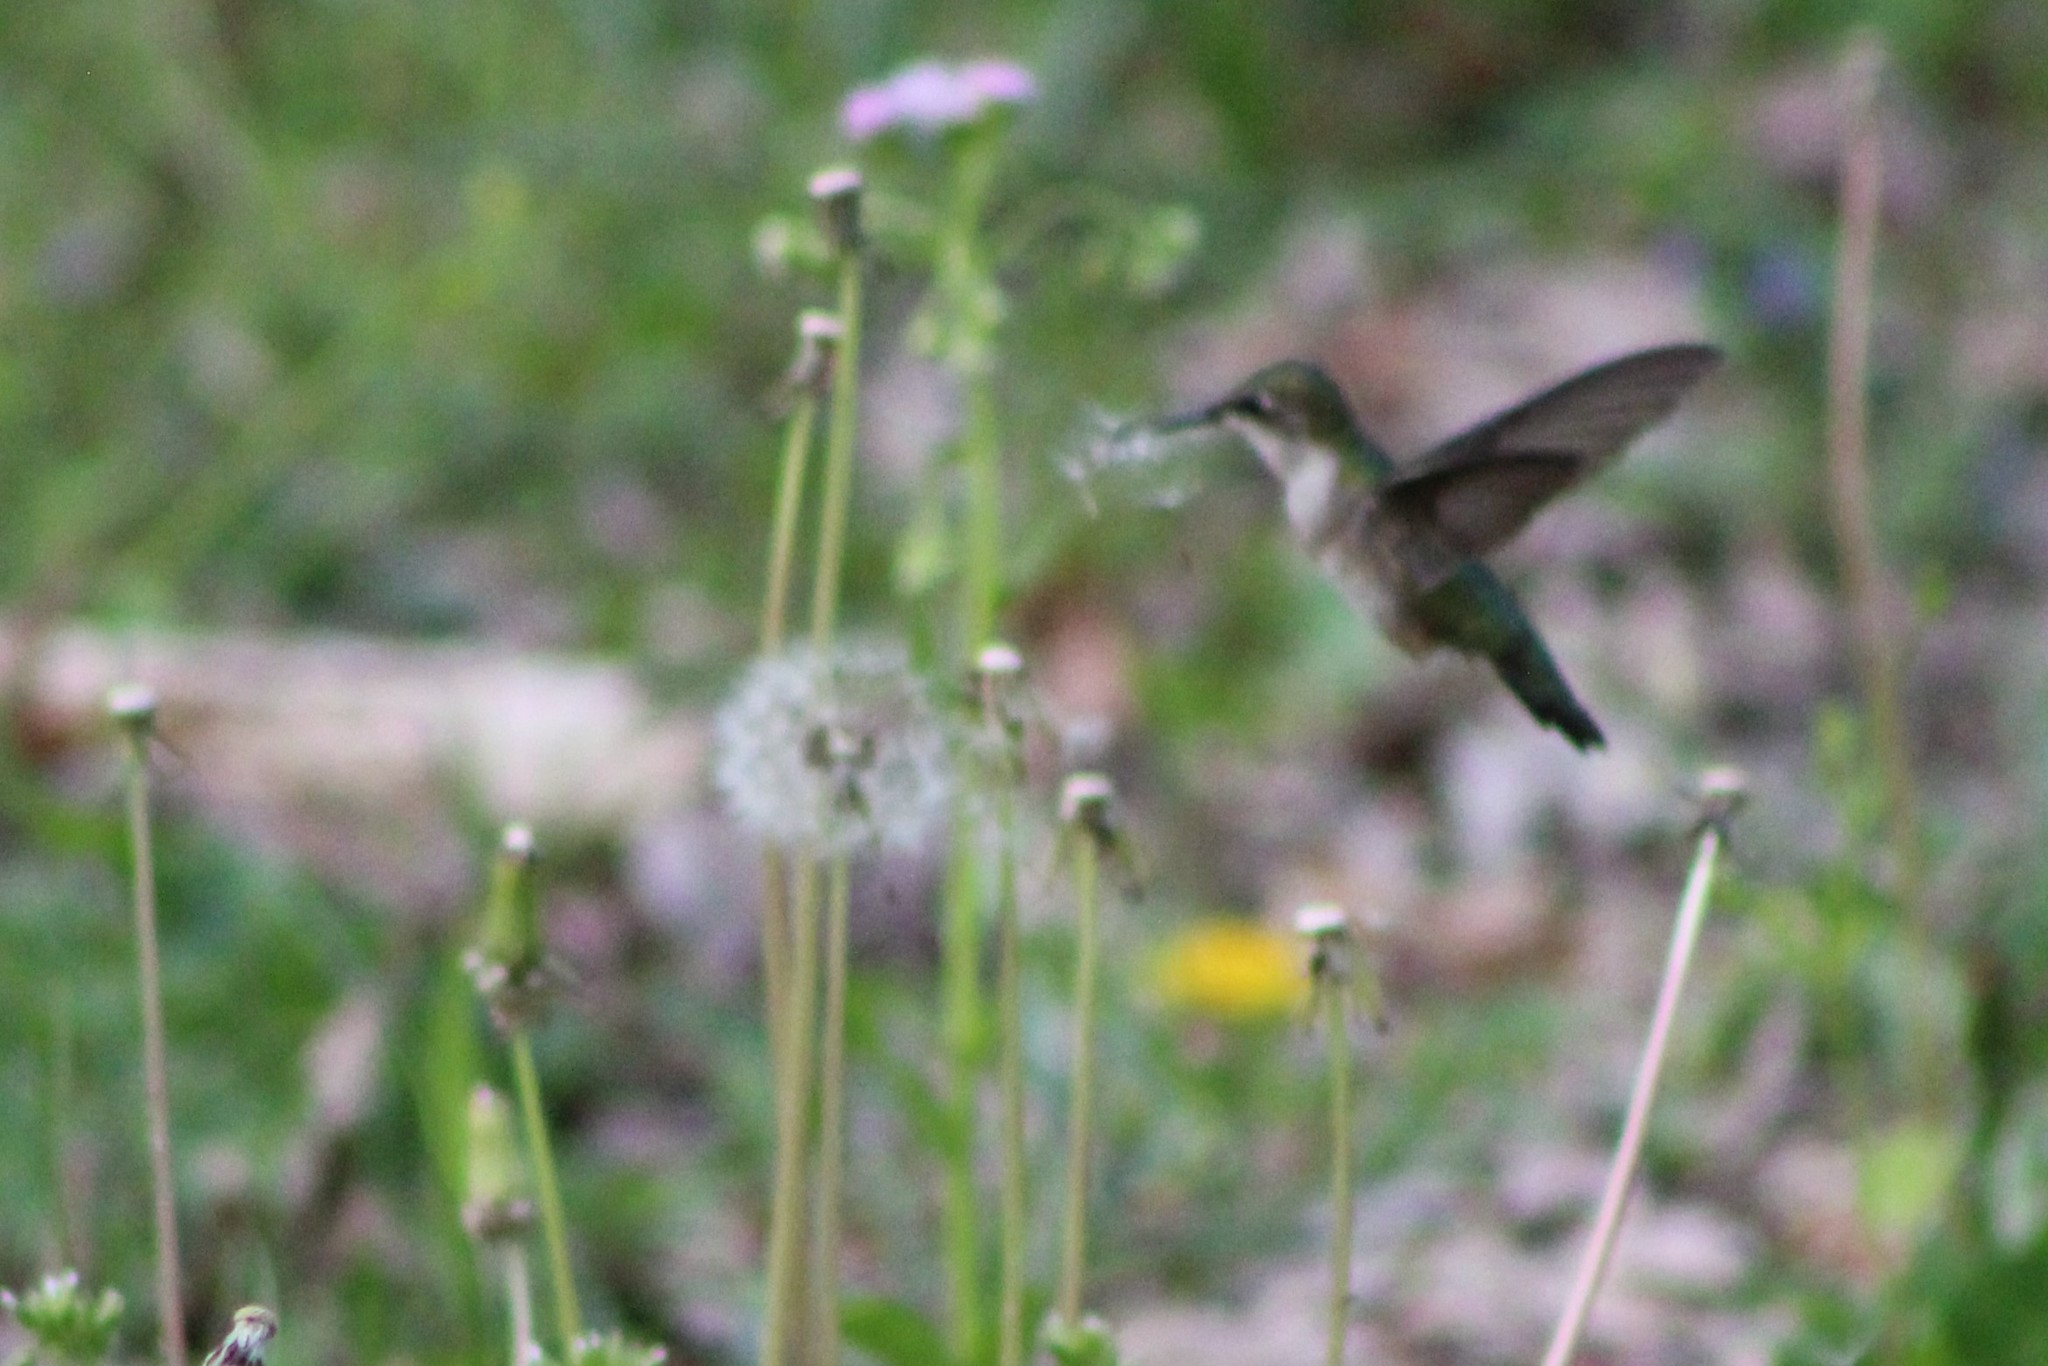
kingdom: Animalia
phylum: Chordata
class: Aves
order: Apodiformes
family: Trochilidae
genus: Archilochus
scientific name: Archilochus colubris
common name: Ruby-throated hummingbird
